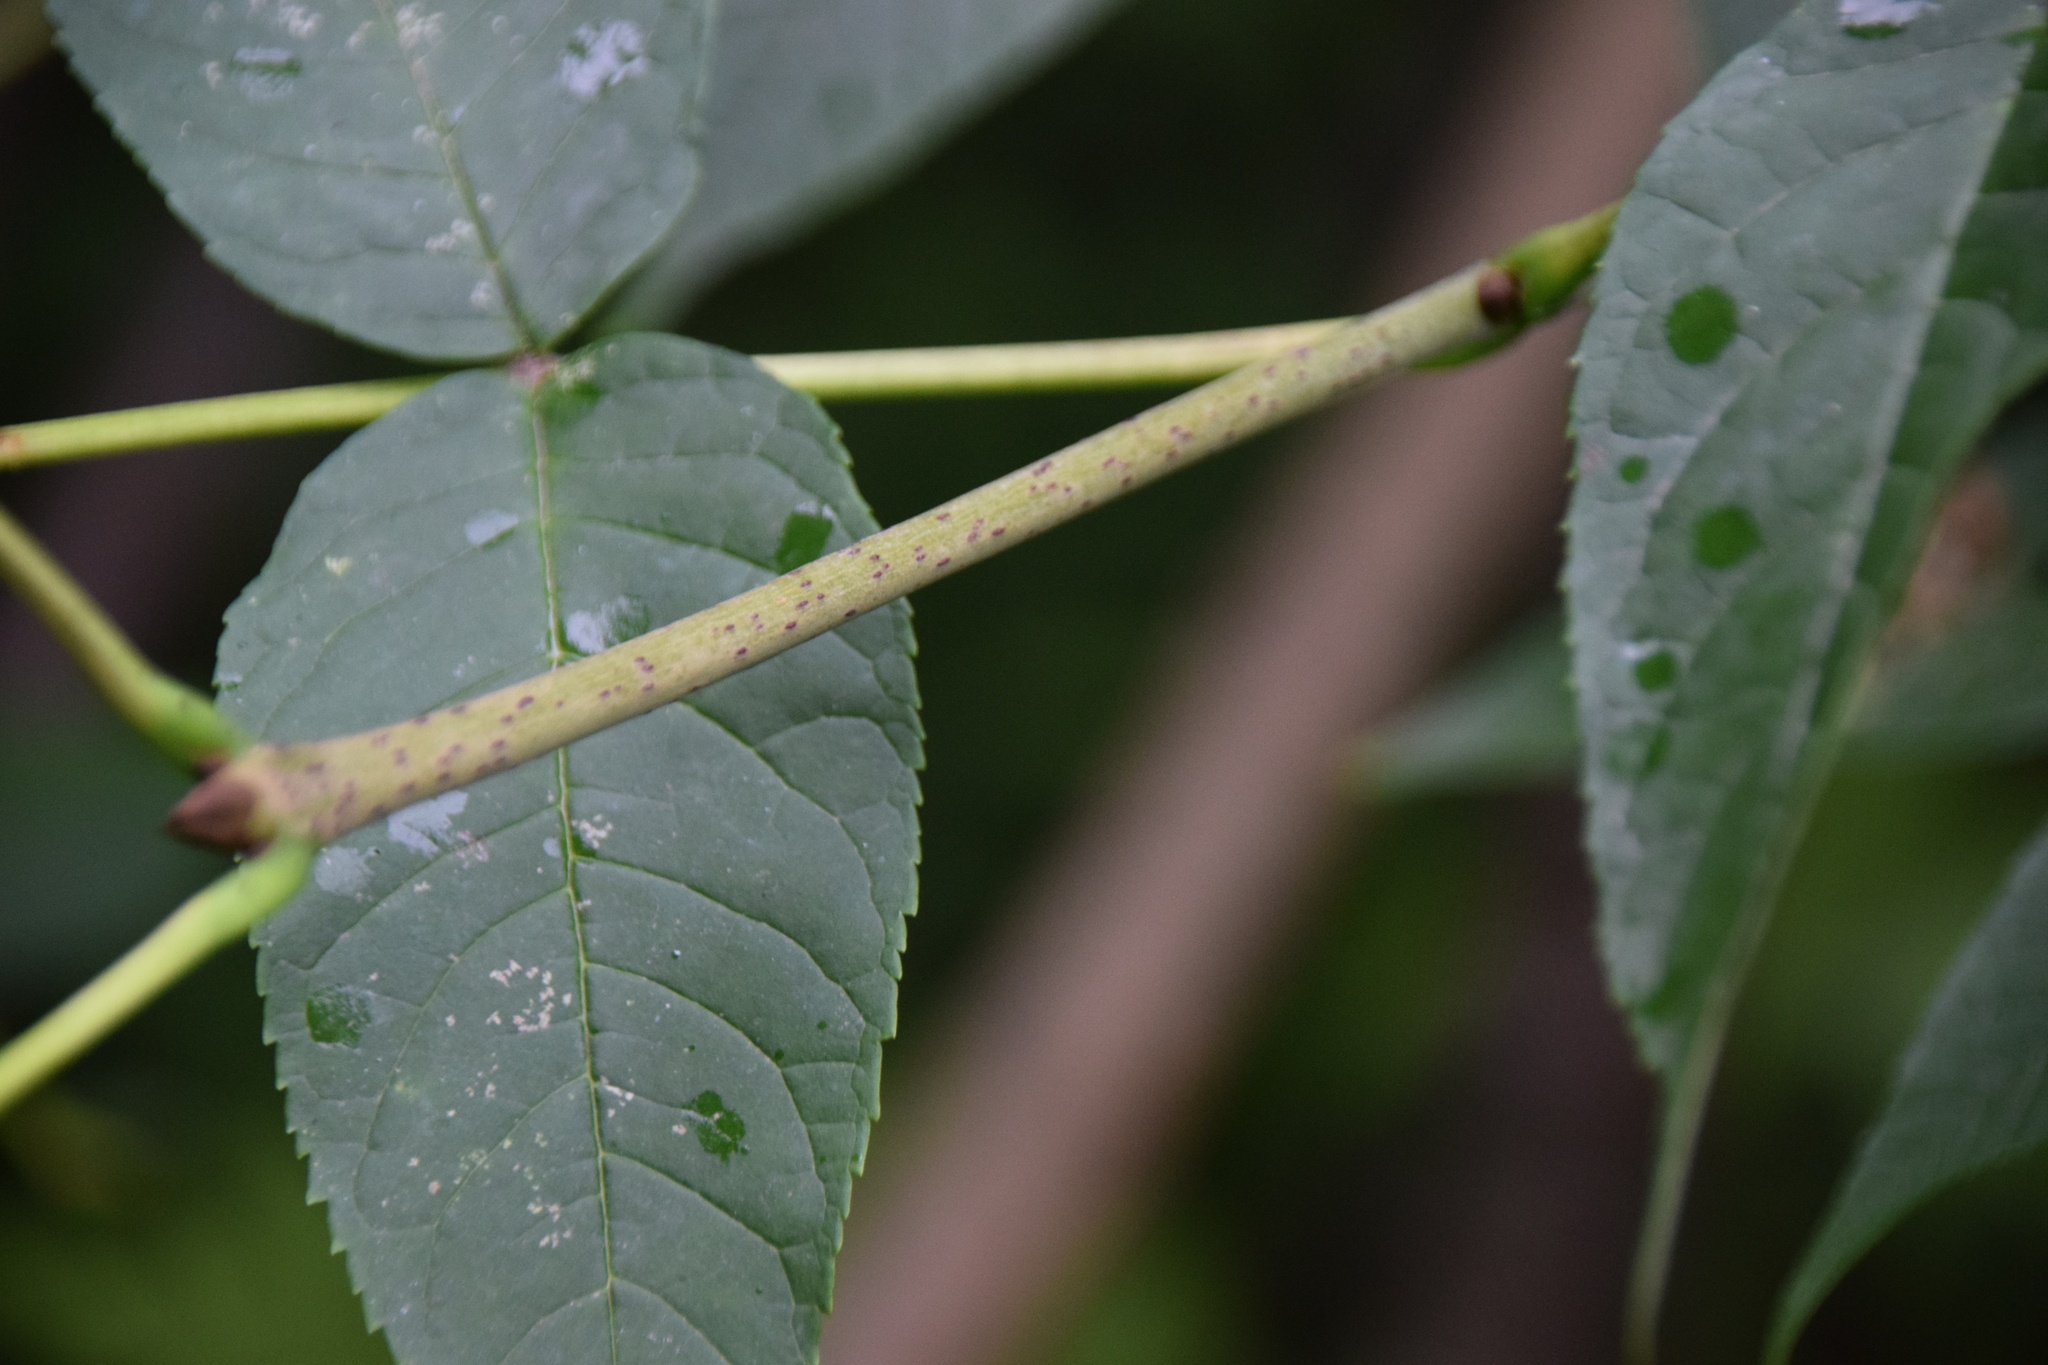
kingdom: Plantae
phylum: Tracheophyta
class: Magnoliopsida
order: Lamiales
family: Oleaceae
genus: Fraxinus
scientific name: Fraxinus nigra
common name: Black ash
